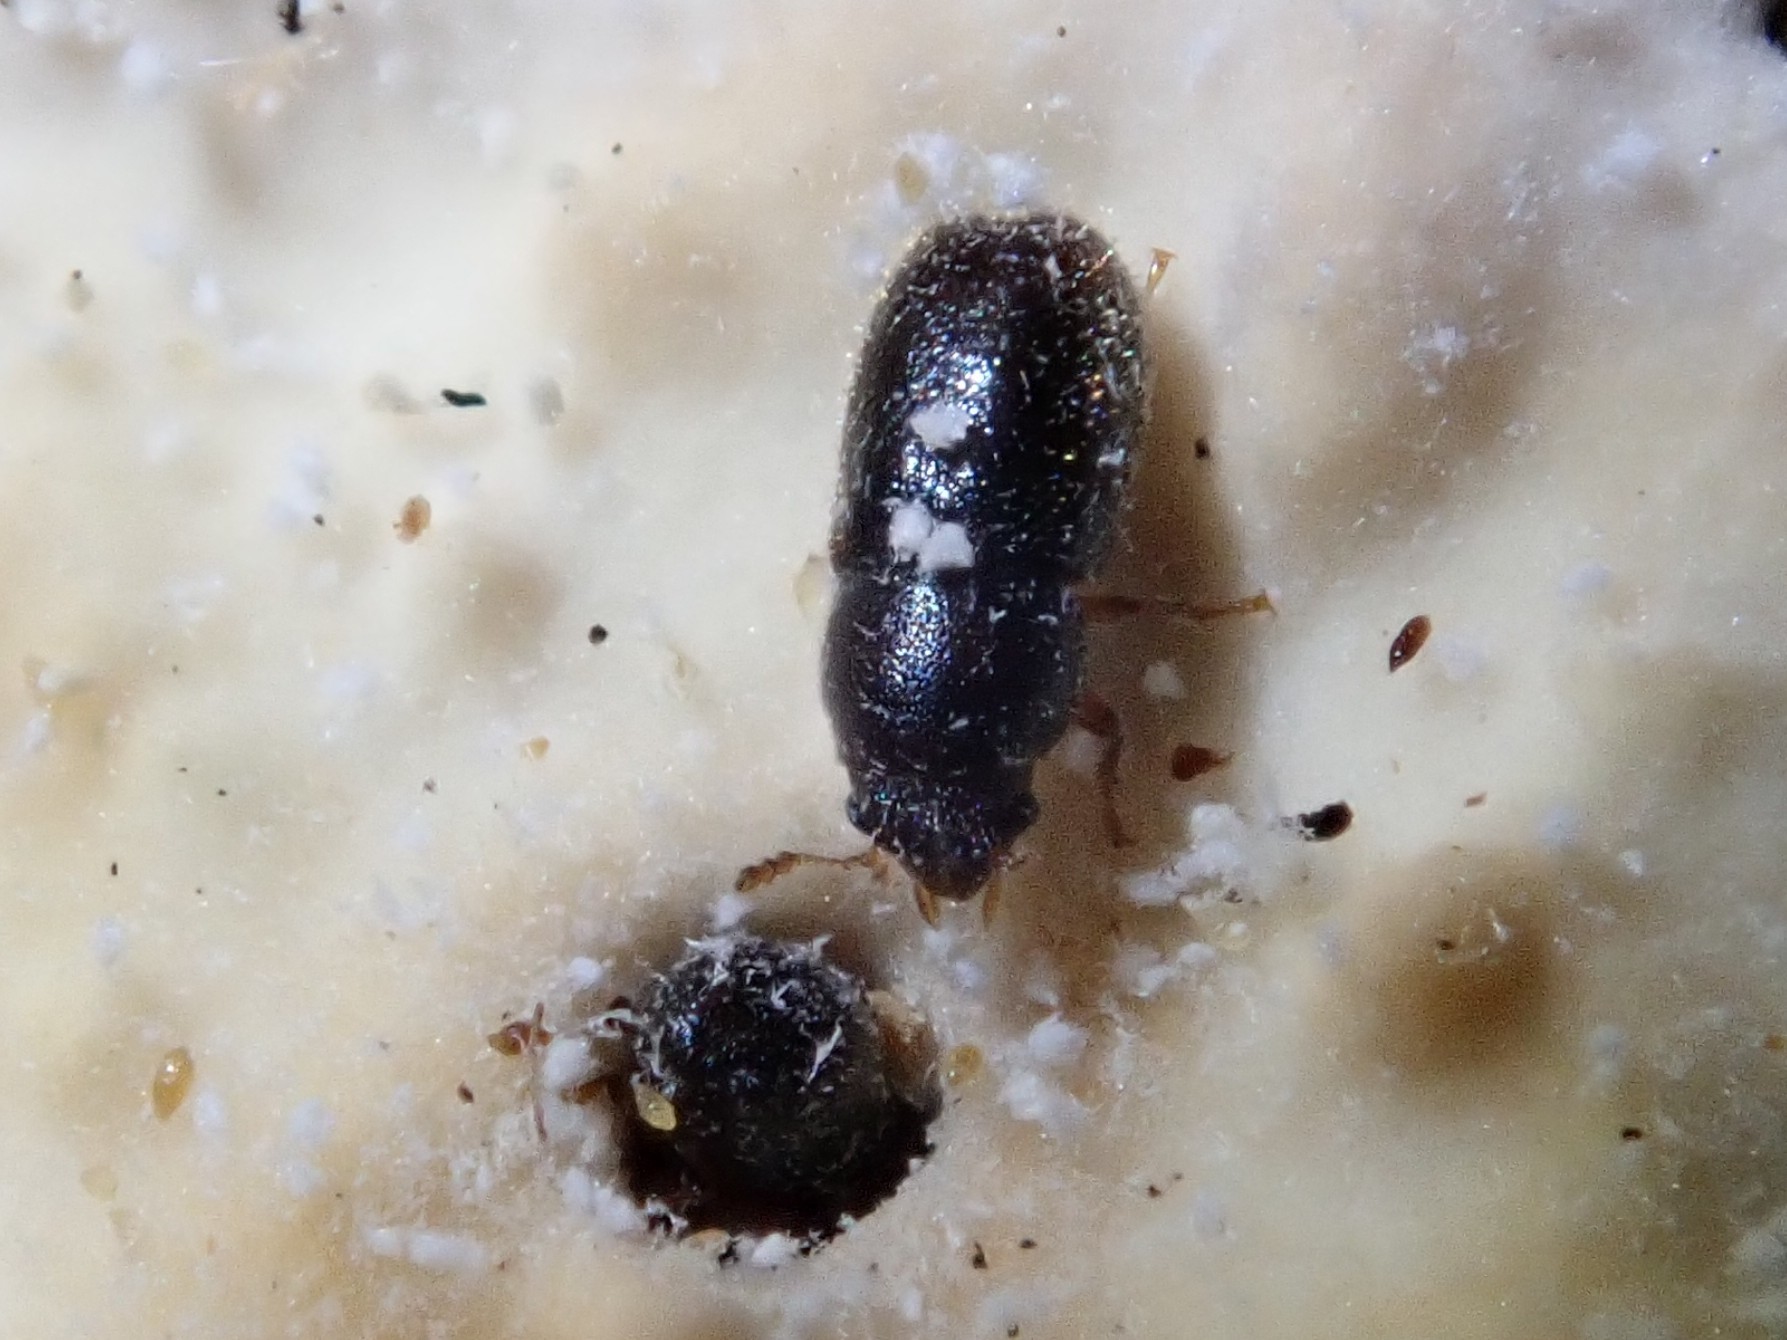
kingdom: Animalia
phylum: Arthropoda
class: Insecta
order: Coleoptera
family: Ciidae
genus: Sulcacis
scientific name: Sulcacis fronticornis
